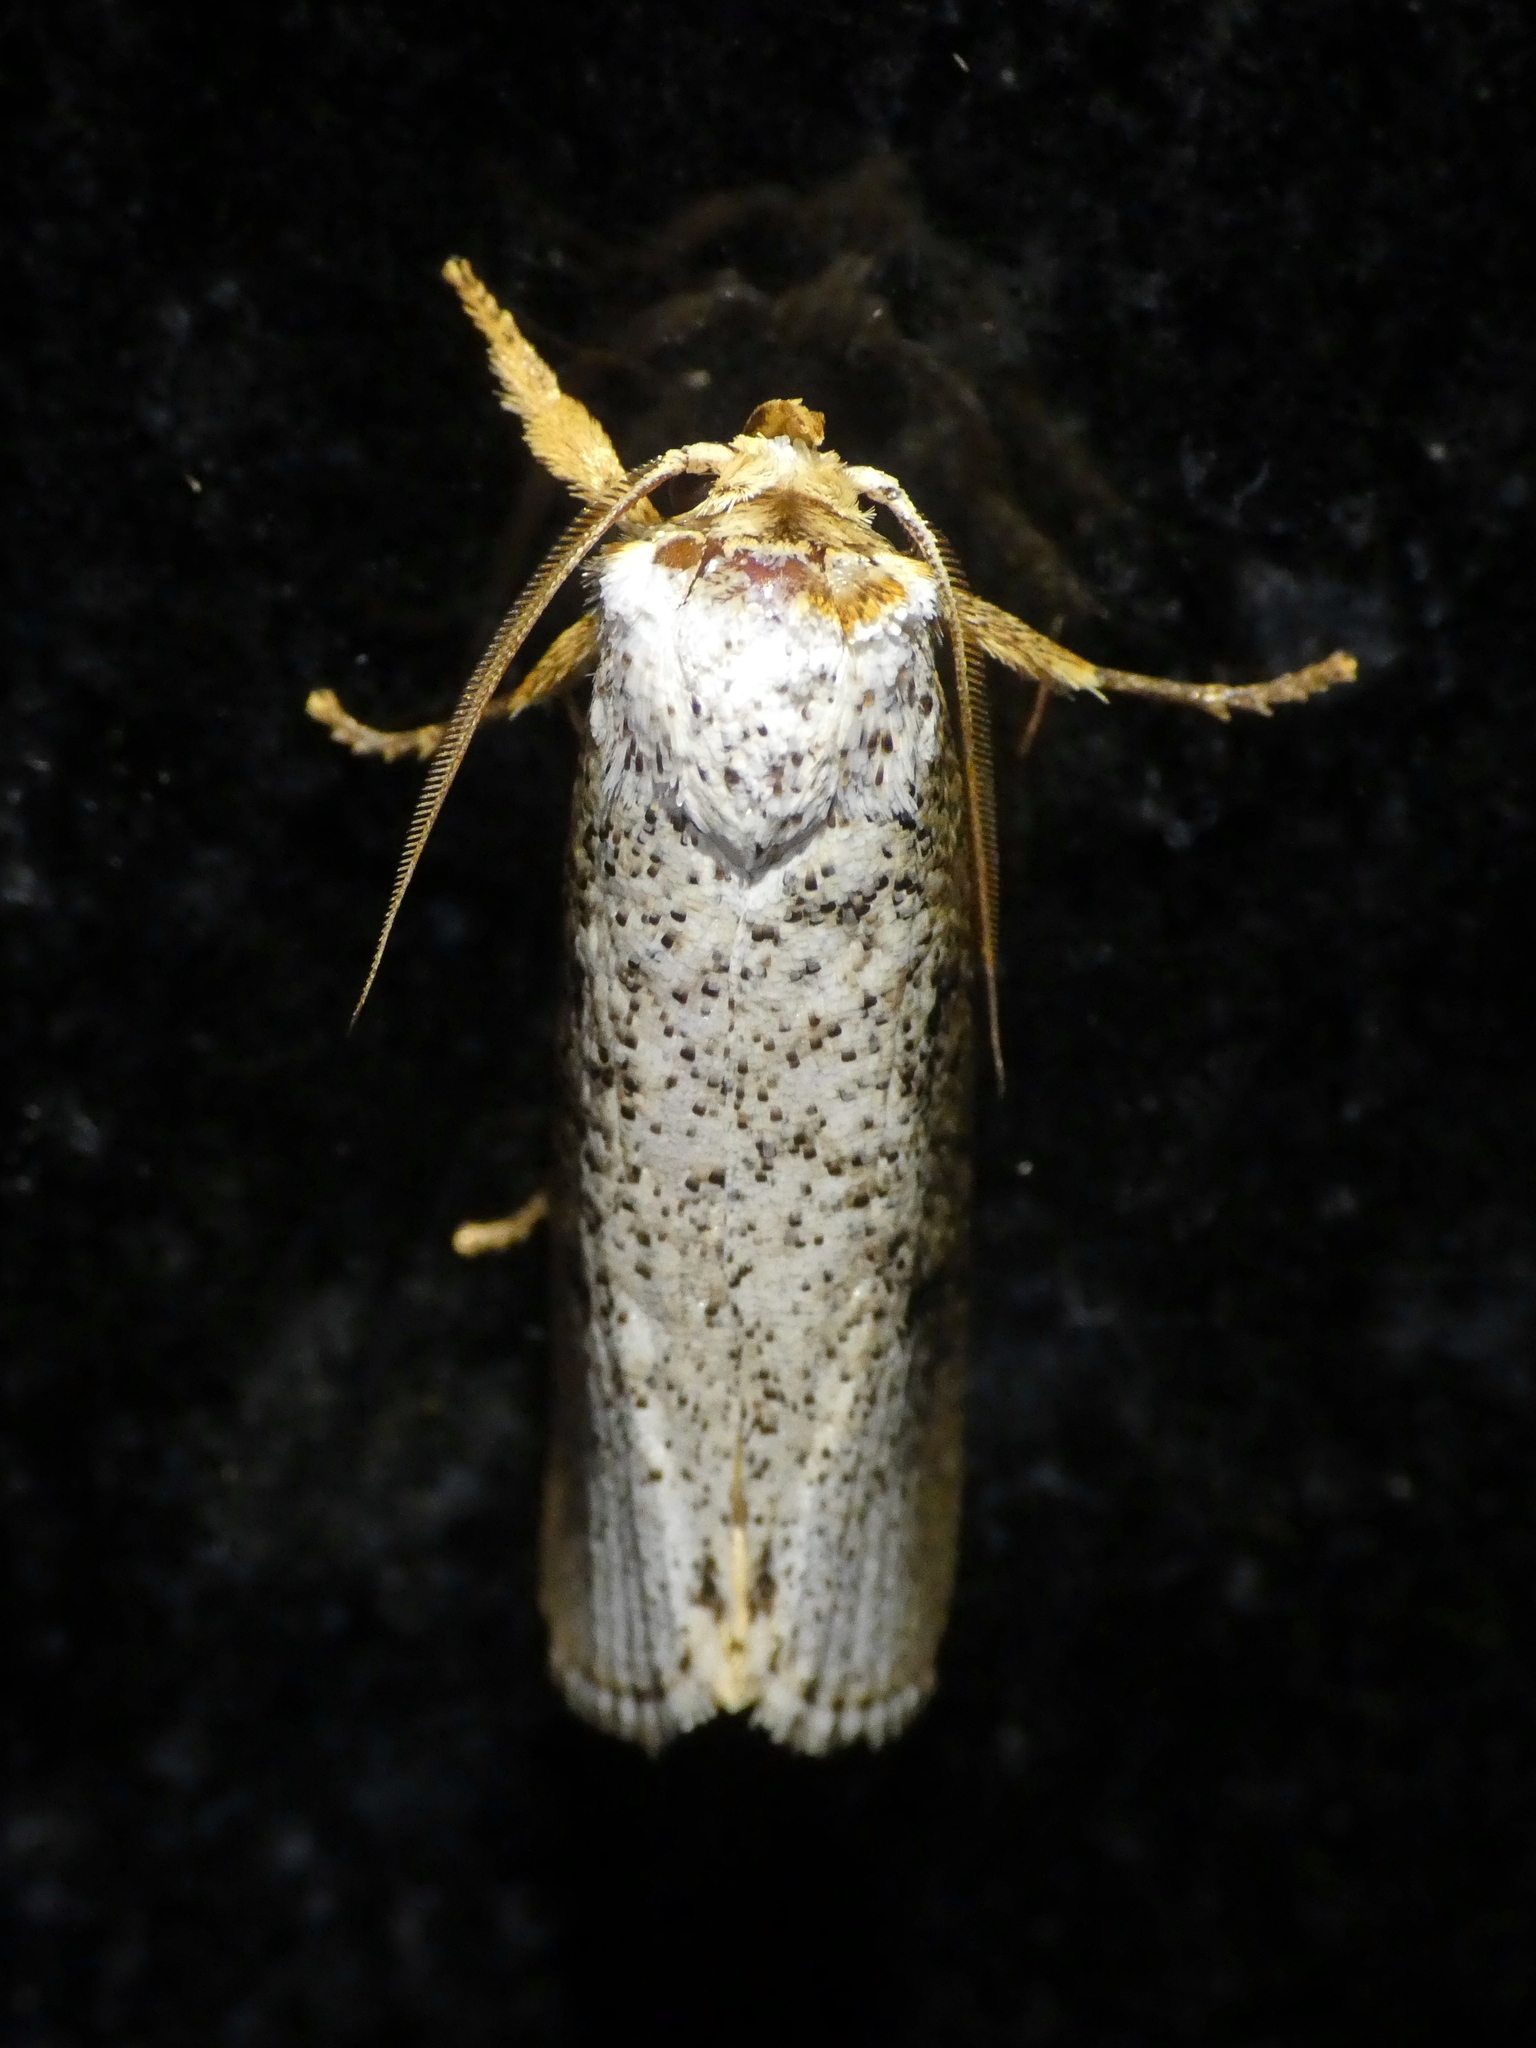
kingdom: Animalia
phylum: Arthropoda
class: Insecta
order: Lepidoptera
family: Xyloryctidae
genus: Cryptophasa
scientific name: Cryptophasa xylomima
